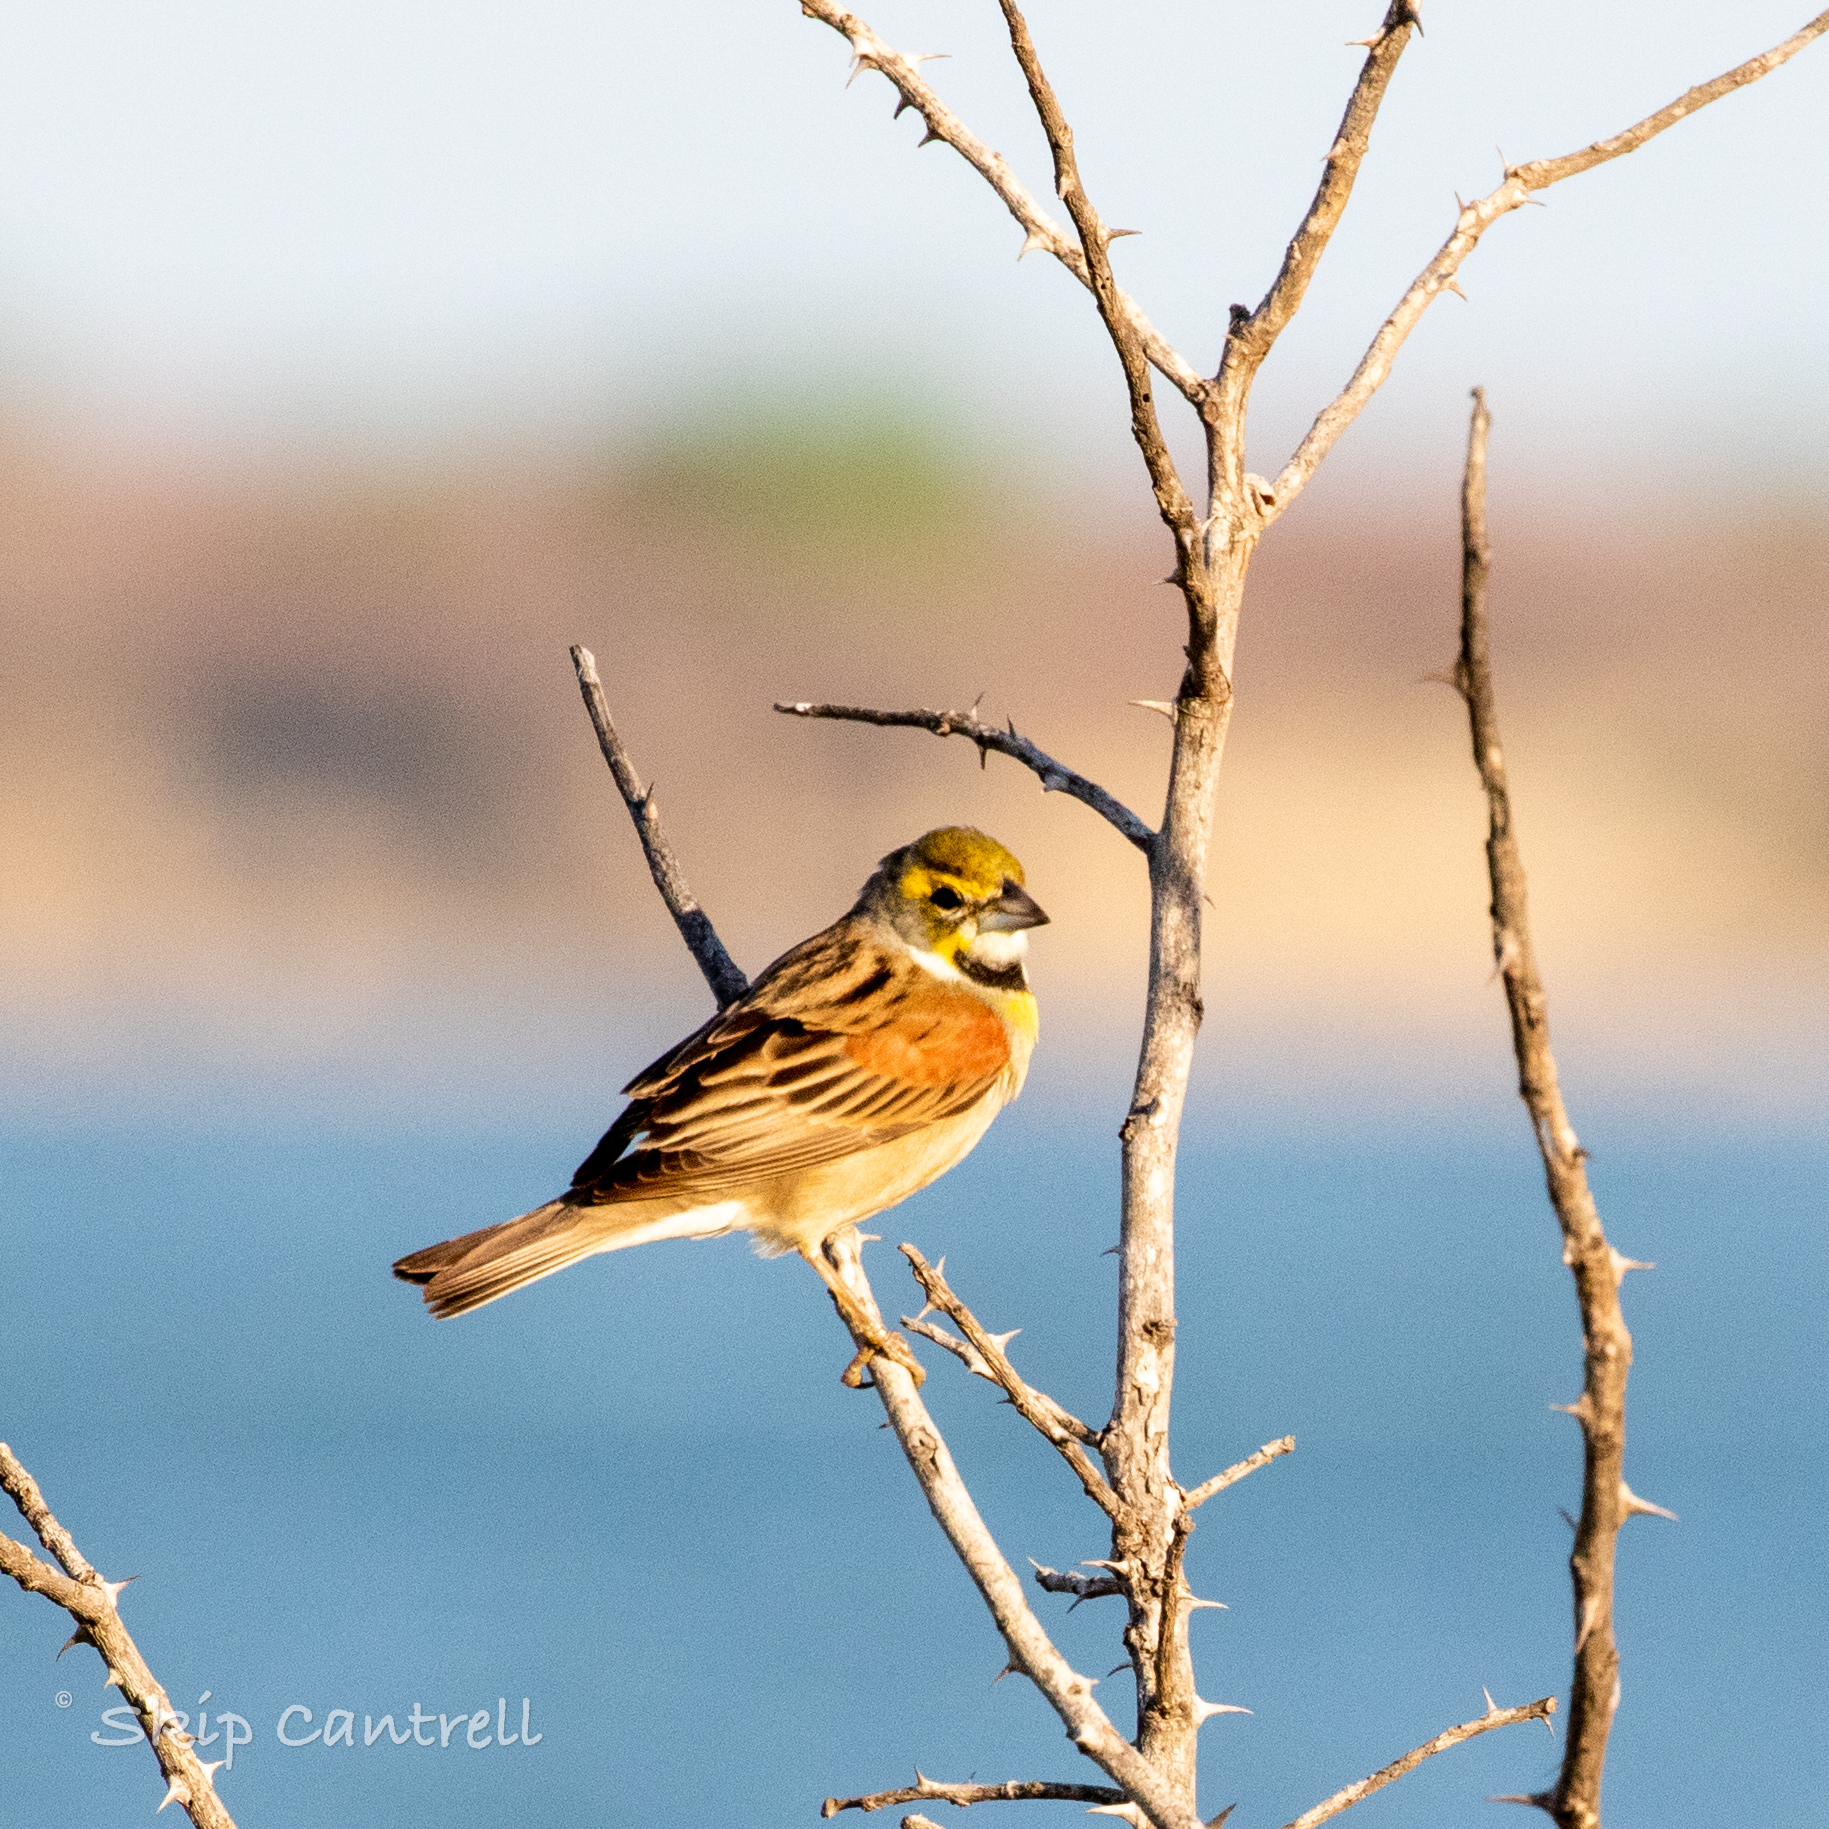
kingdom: Animalia
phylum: Chordata
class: Aves
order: Passeriformes
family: Cardinalidae
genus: Spiza
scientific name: Spiza americana
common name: Dickcissel
